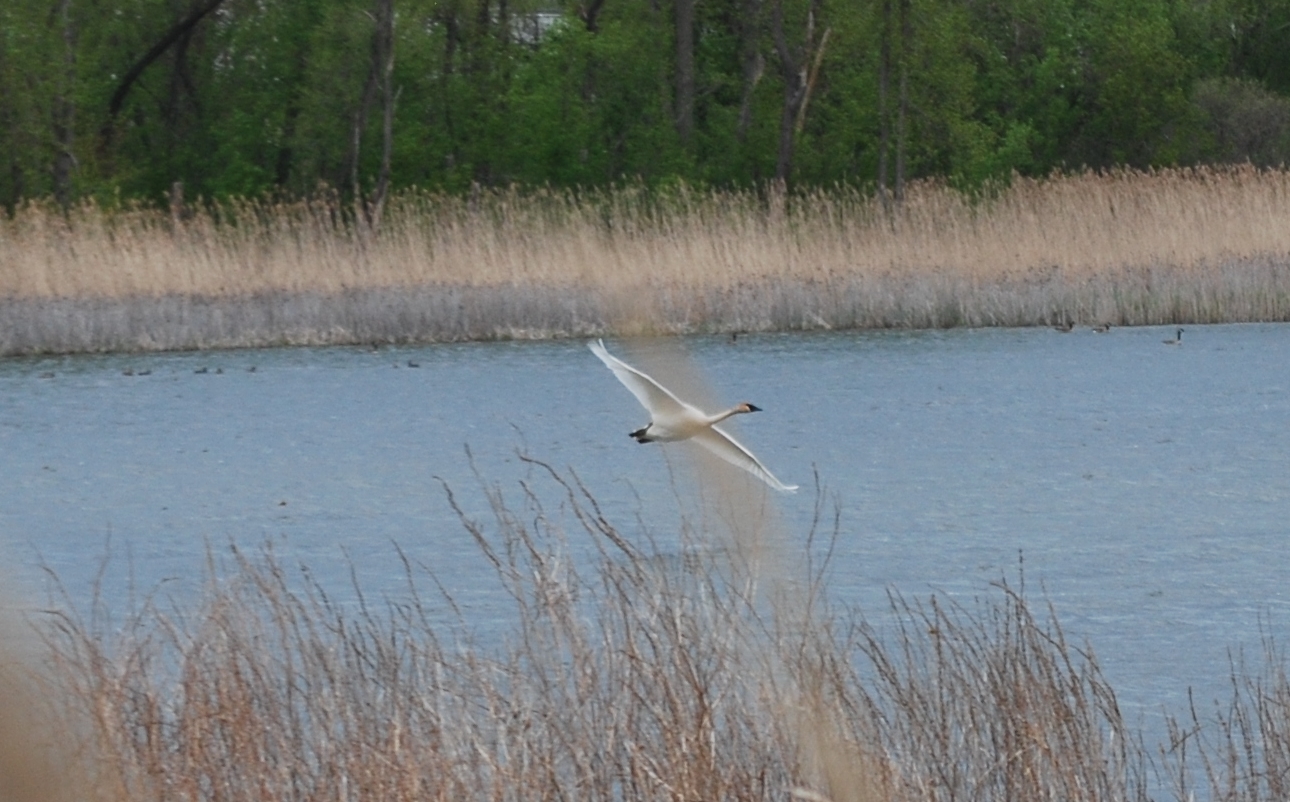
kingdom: Animalia
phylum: Chordata
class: Aves
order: Anseriformes
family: Anatidae
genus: Cygnus
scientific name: Cygnus buccinator
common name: Trumpeter swan
